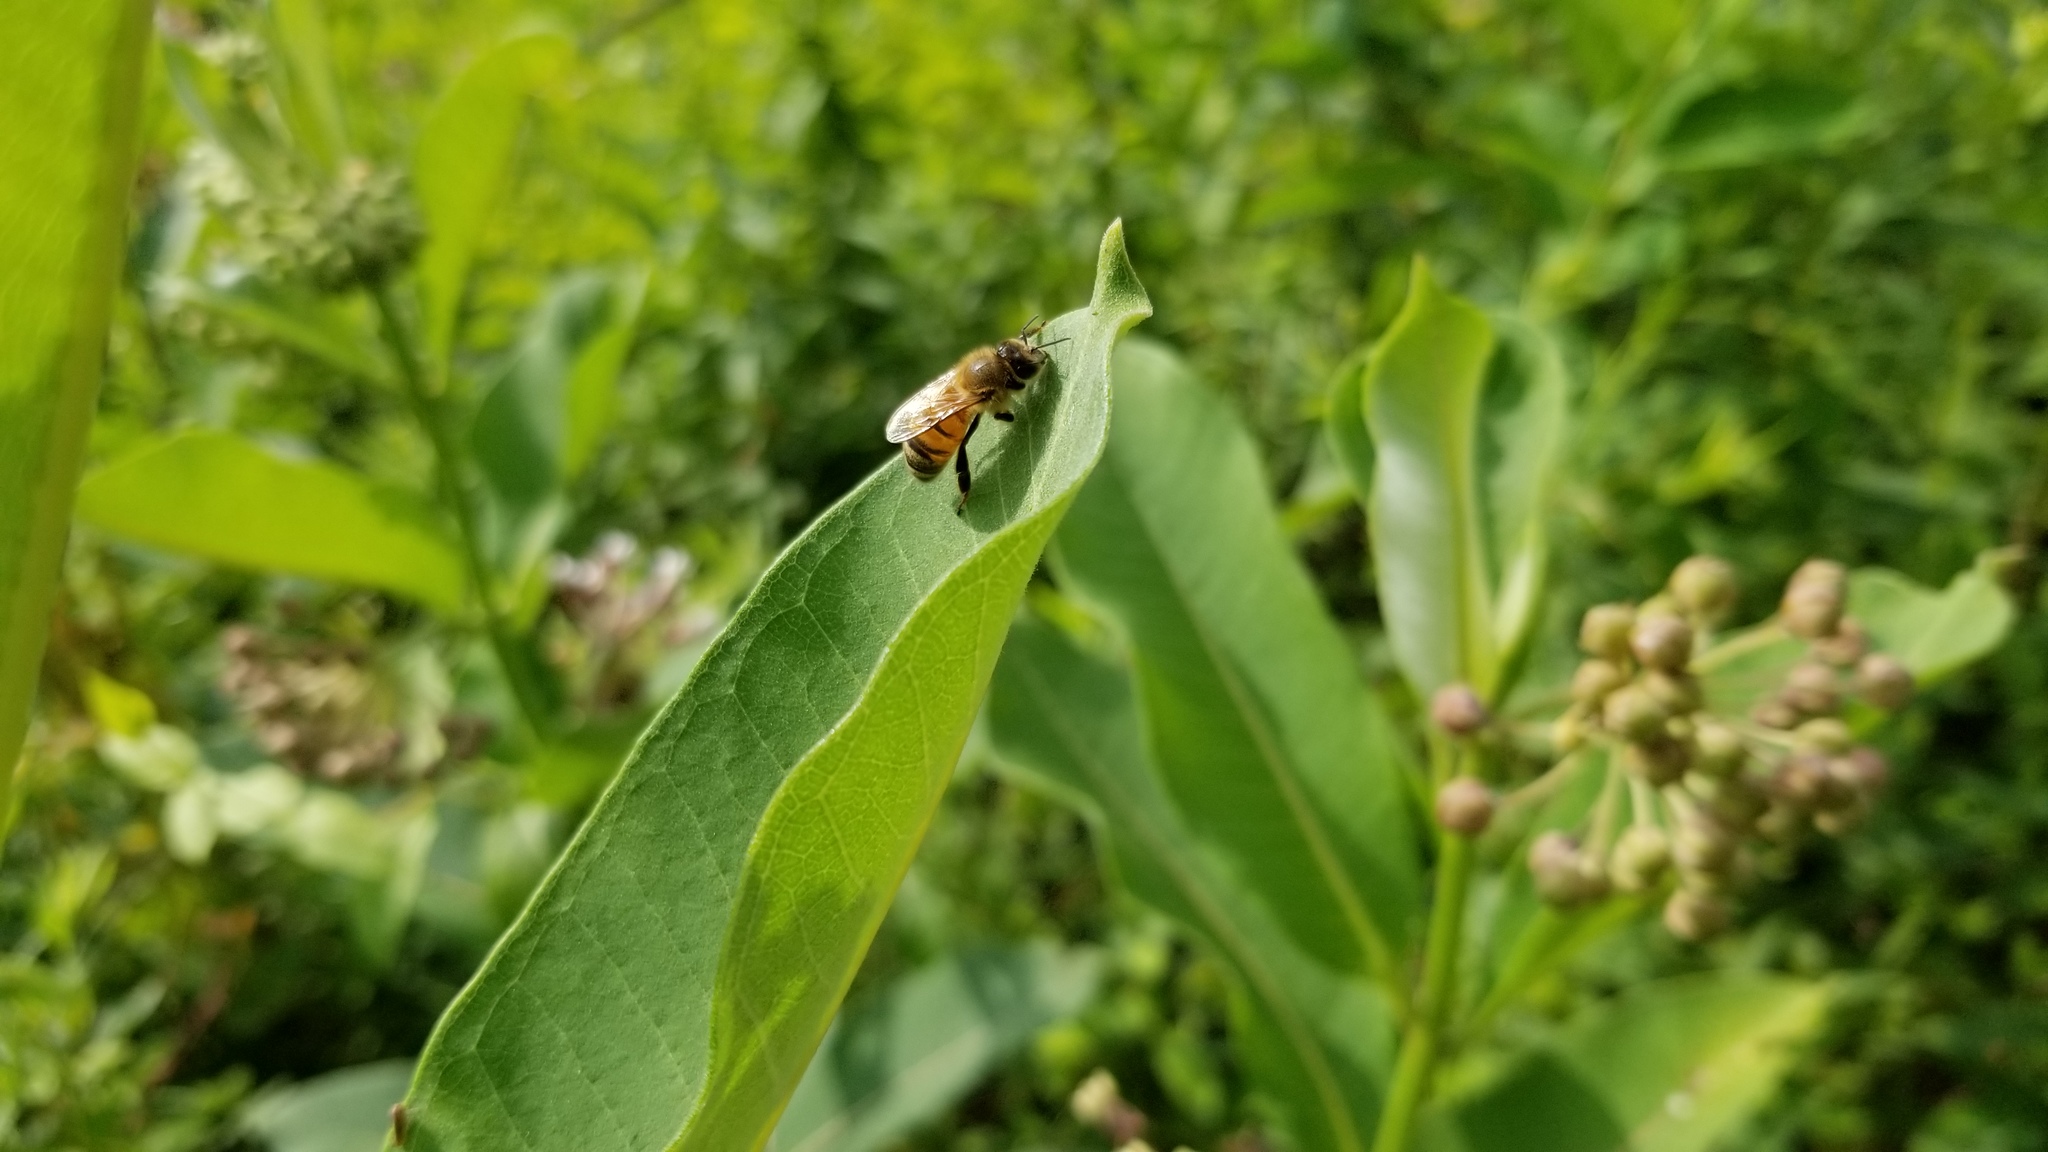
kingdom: Animalia
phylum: Arthropoda
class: Insecta
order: Hymenoptera
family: Apidae
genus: Apis
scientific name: Apis mellifera
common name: Honey bee
